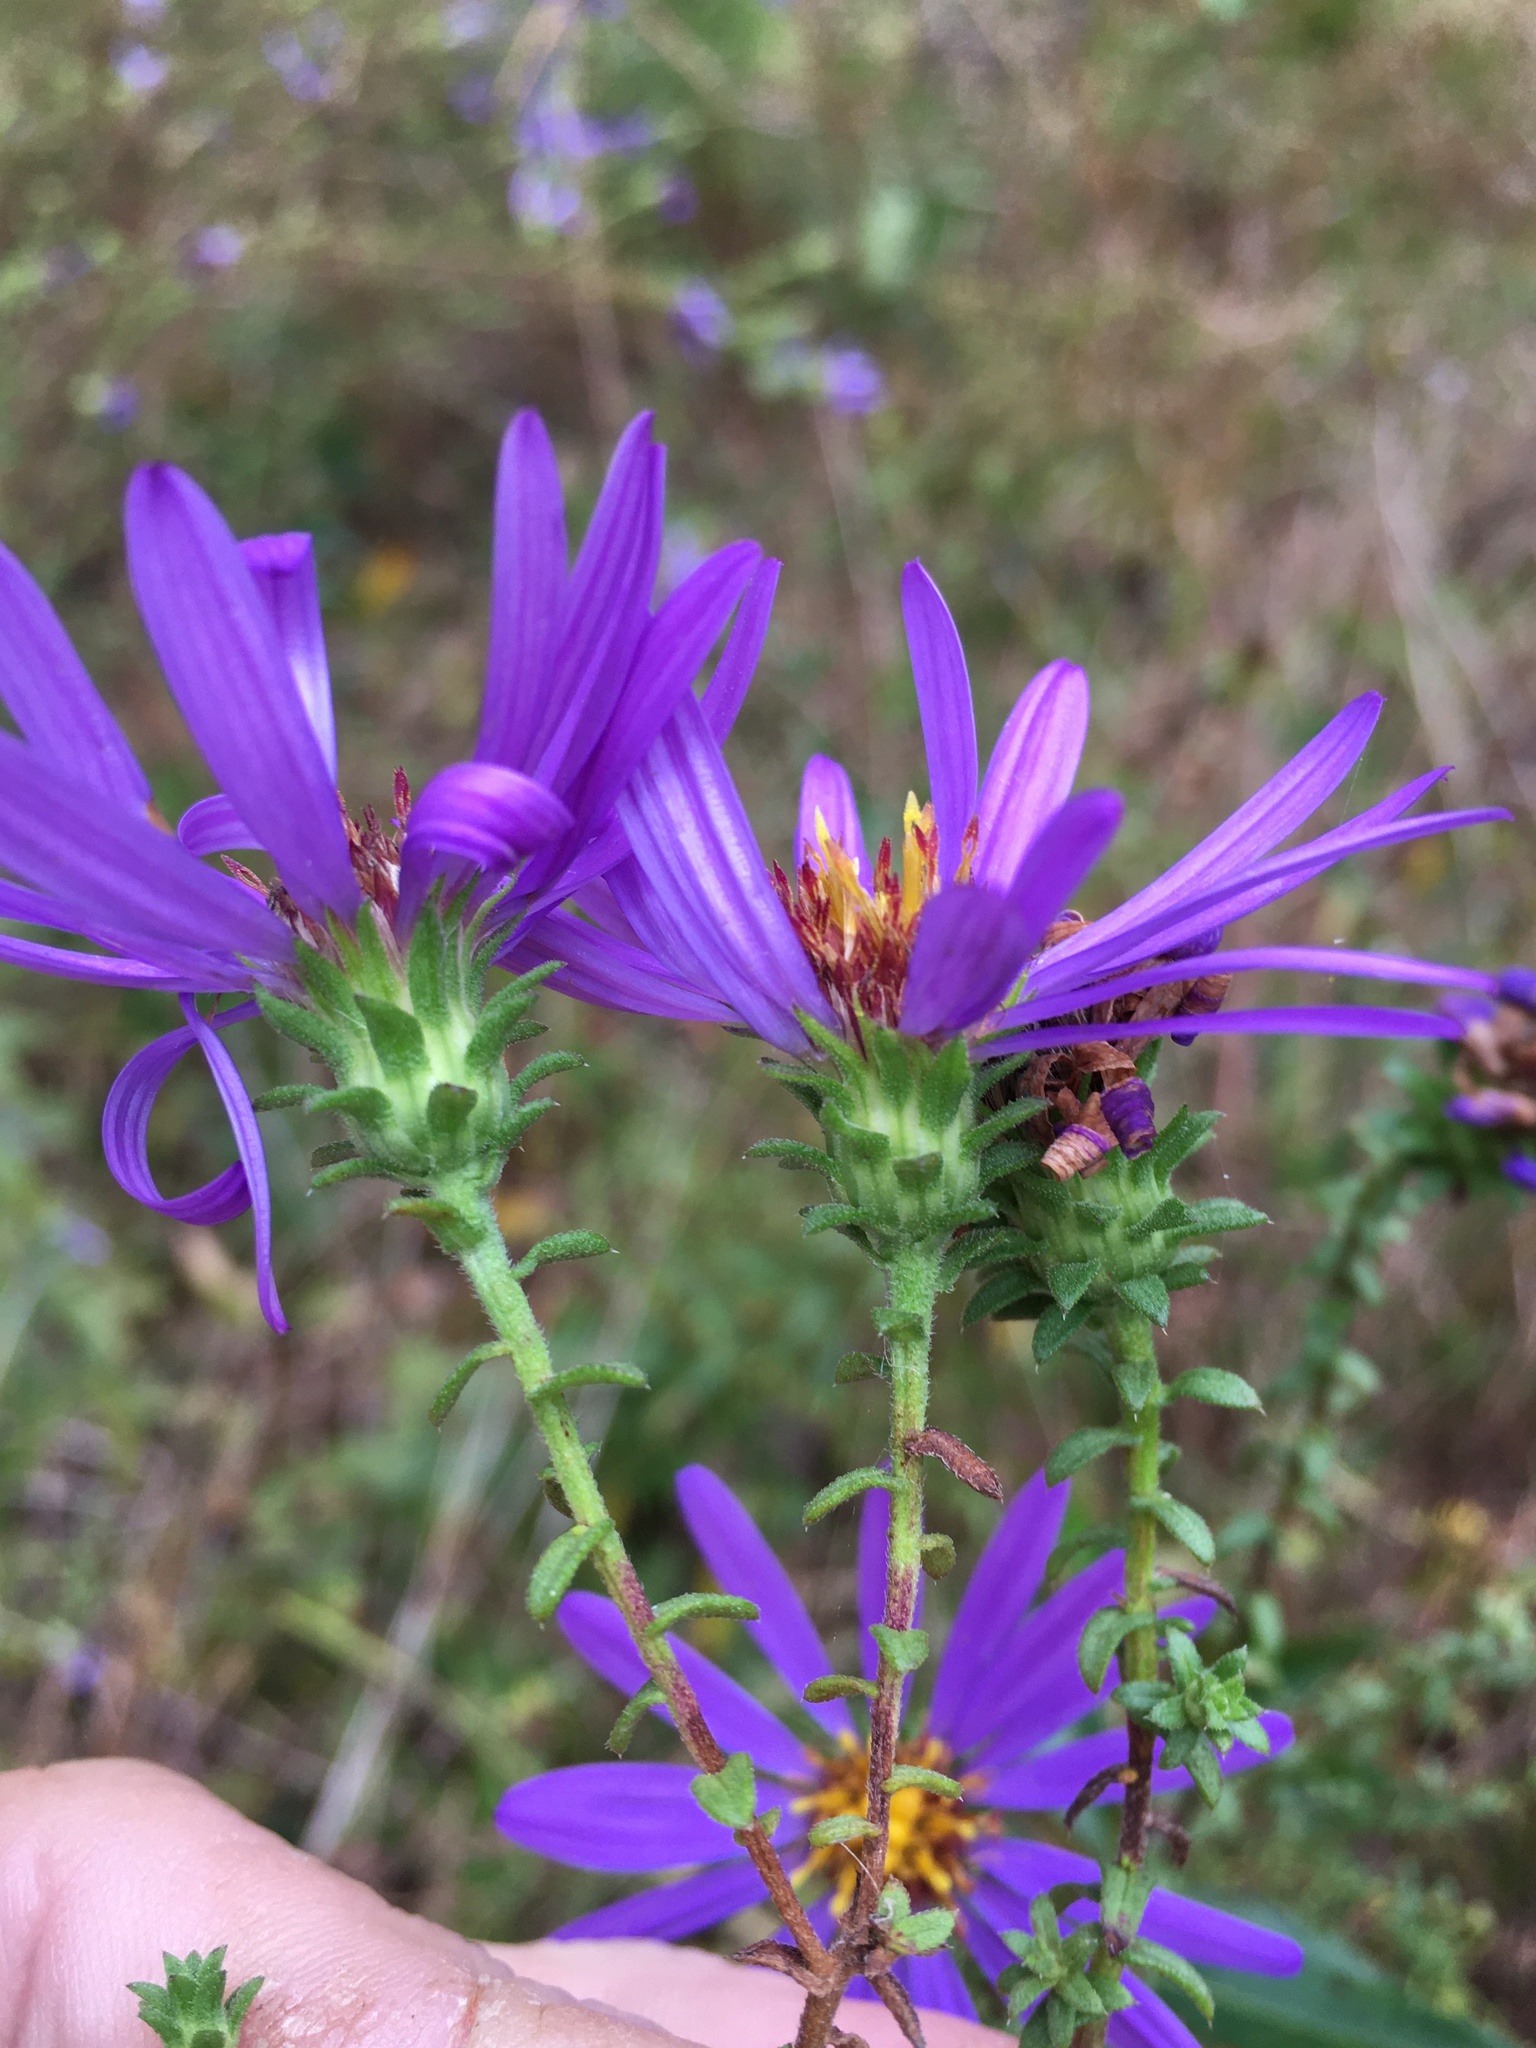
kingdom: Plantae
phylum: Tracheophyta
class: Magnoliopsida
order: Asterales
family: Asteraceae
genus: Symphyotrichum
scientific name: Symphyotrichum grandiflorum
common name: Big-head aster
